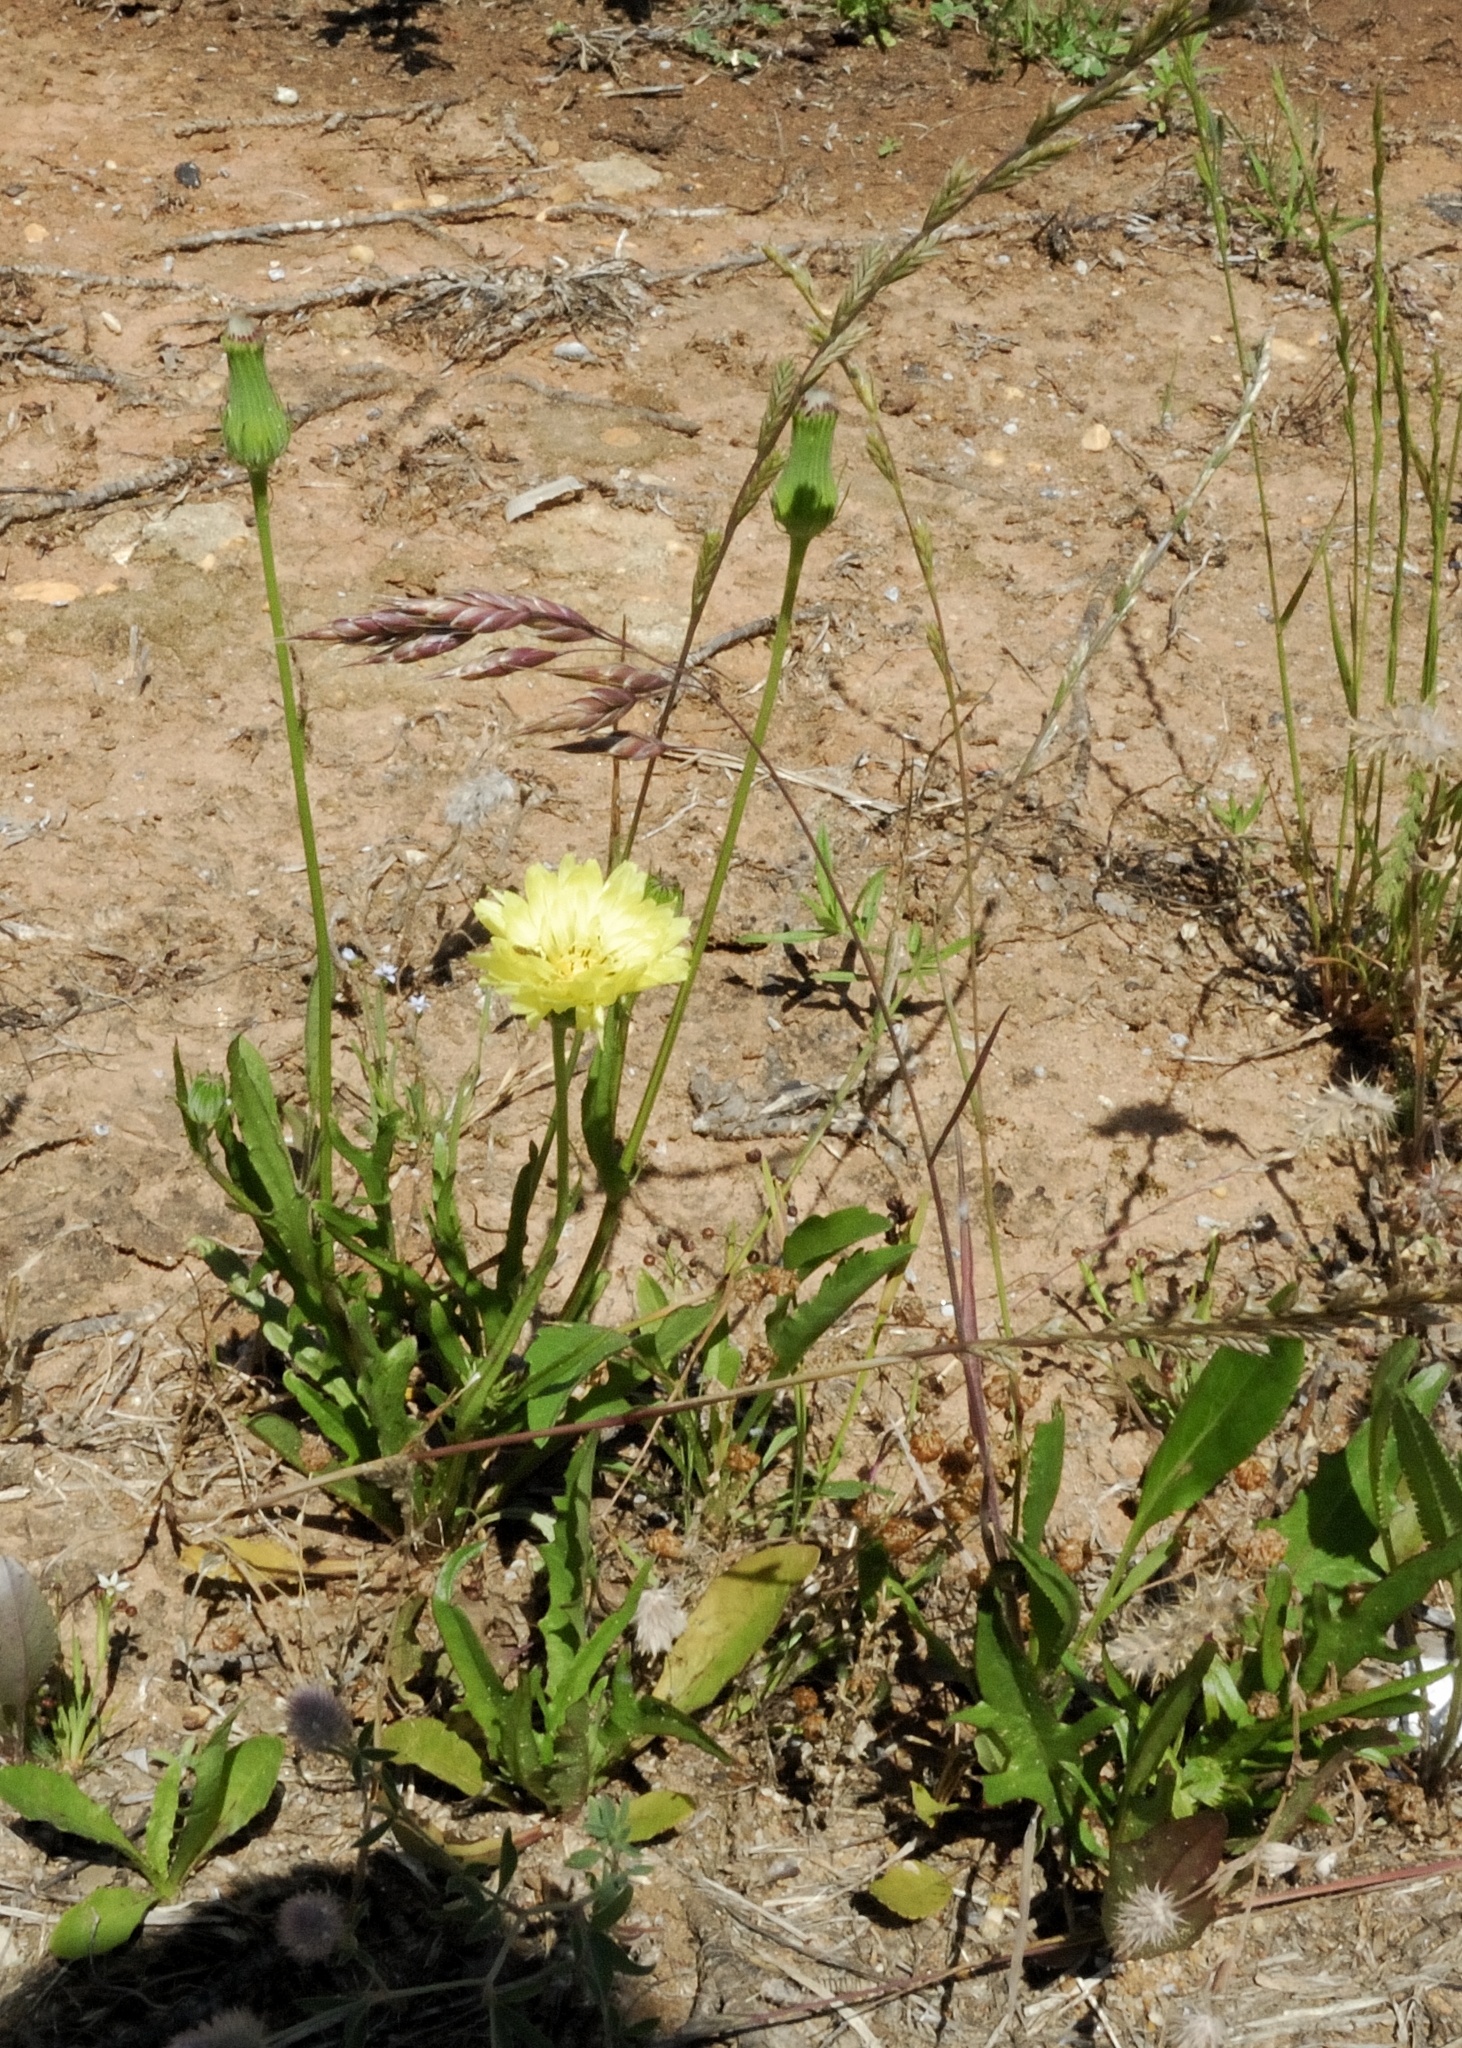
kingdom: Plantae
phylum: Tracheophyta
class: Magnoliopsida
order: Asterales
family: Asteraceae
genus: Pyrrhopappus
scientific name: Pyrrhopappus carolinianus
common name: Carolina desert-chicory
